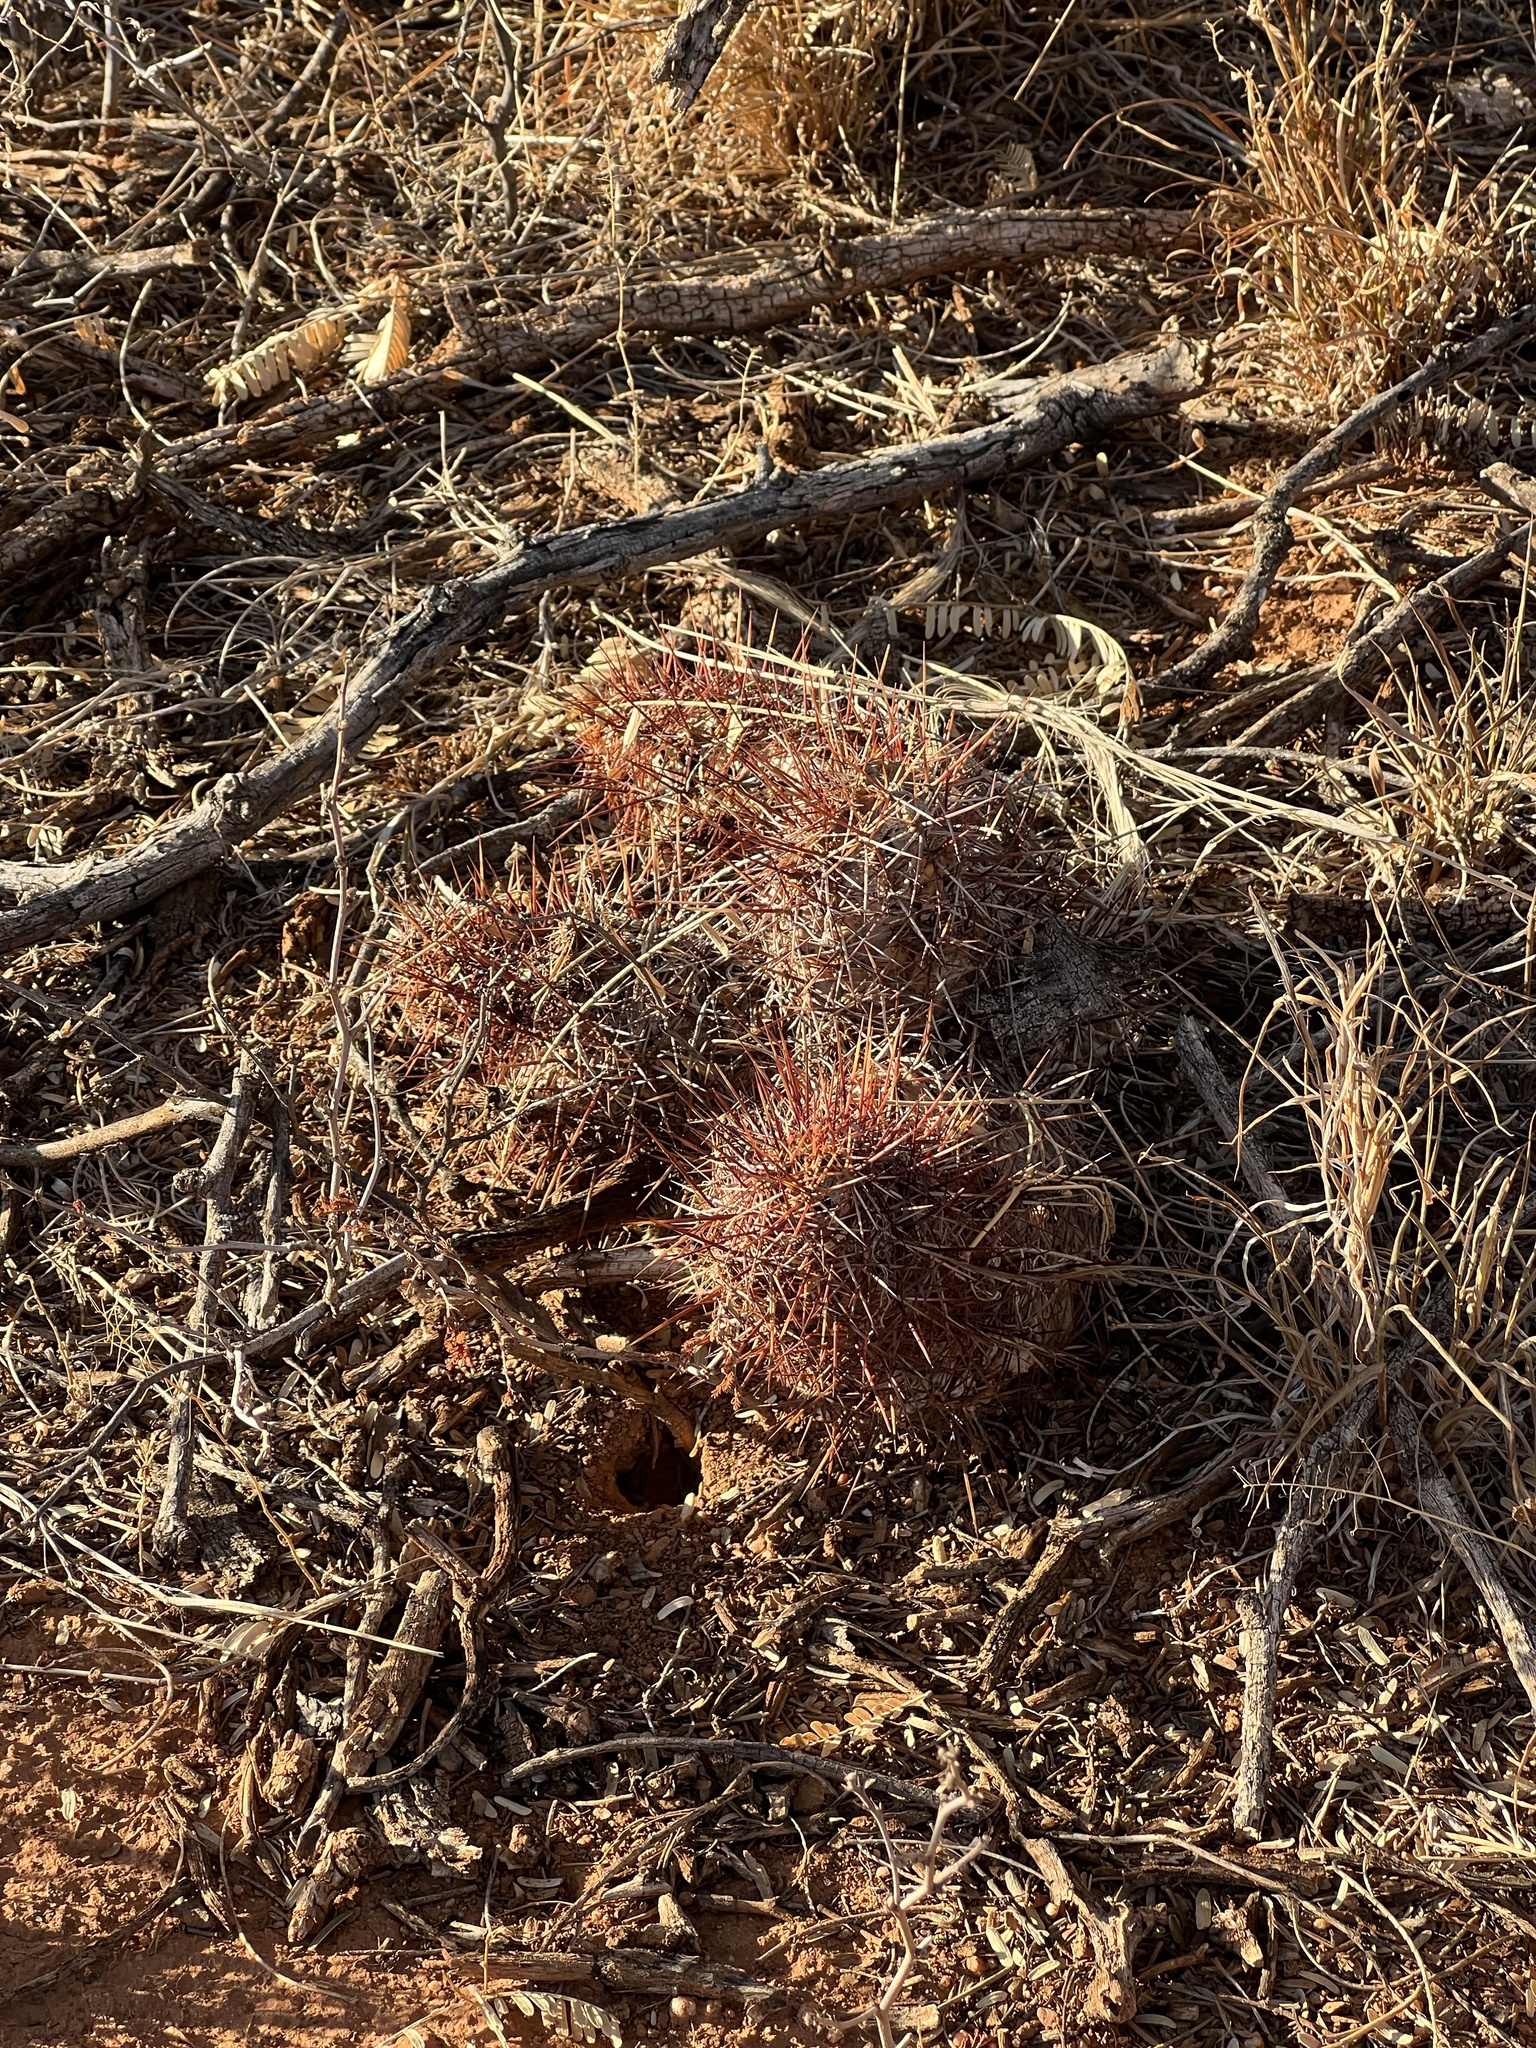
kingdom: Plantae
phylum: Tracheophyta
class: Magnoliopsida
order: Caryophyllales
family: Cactaceae
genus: Echinocereus
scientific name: Echinocereus fasciculatus
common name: Bundle hedgehog
